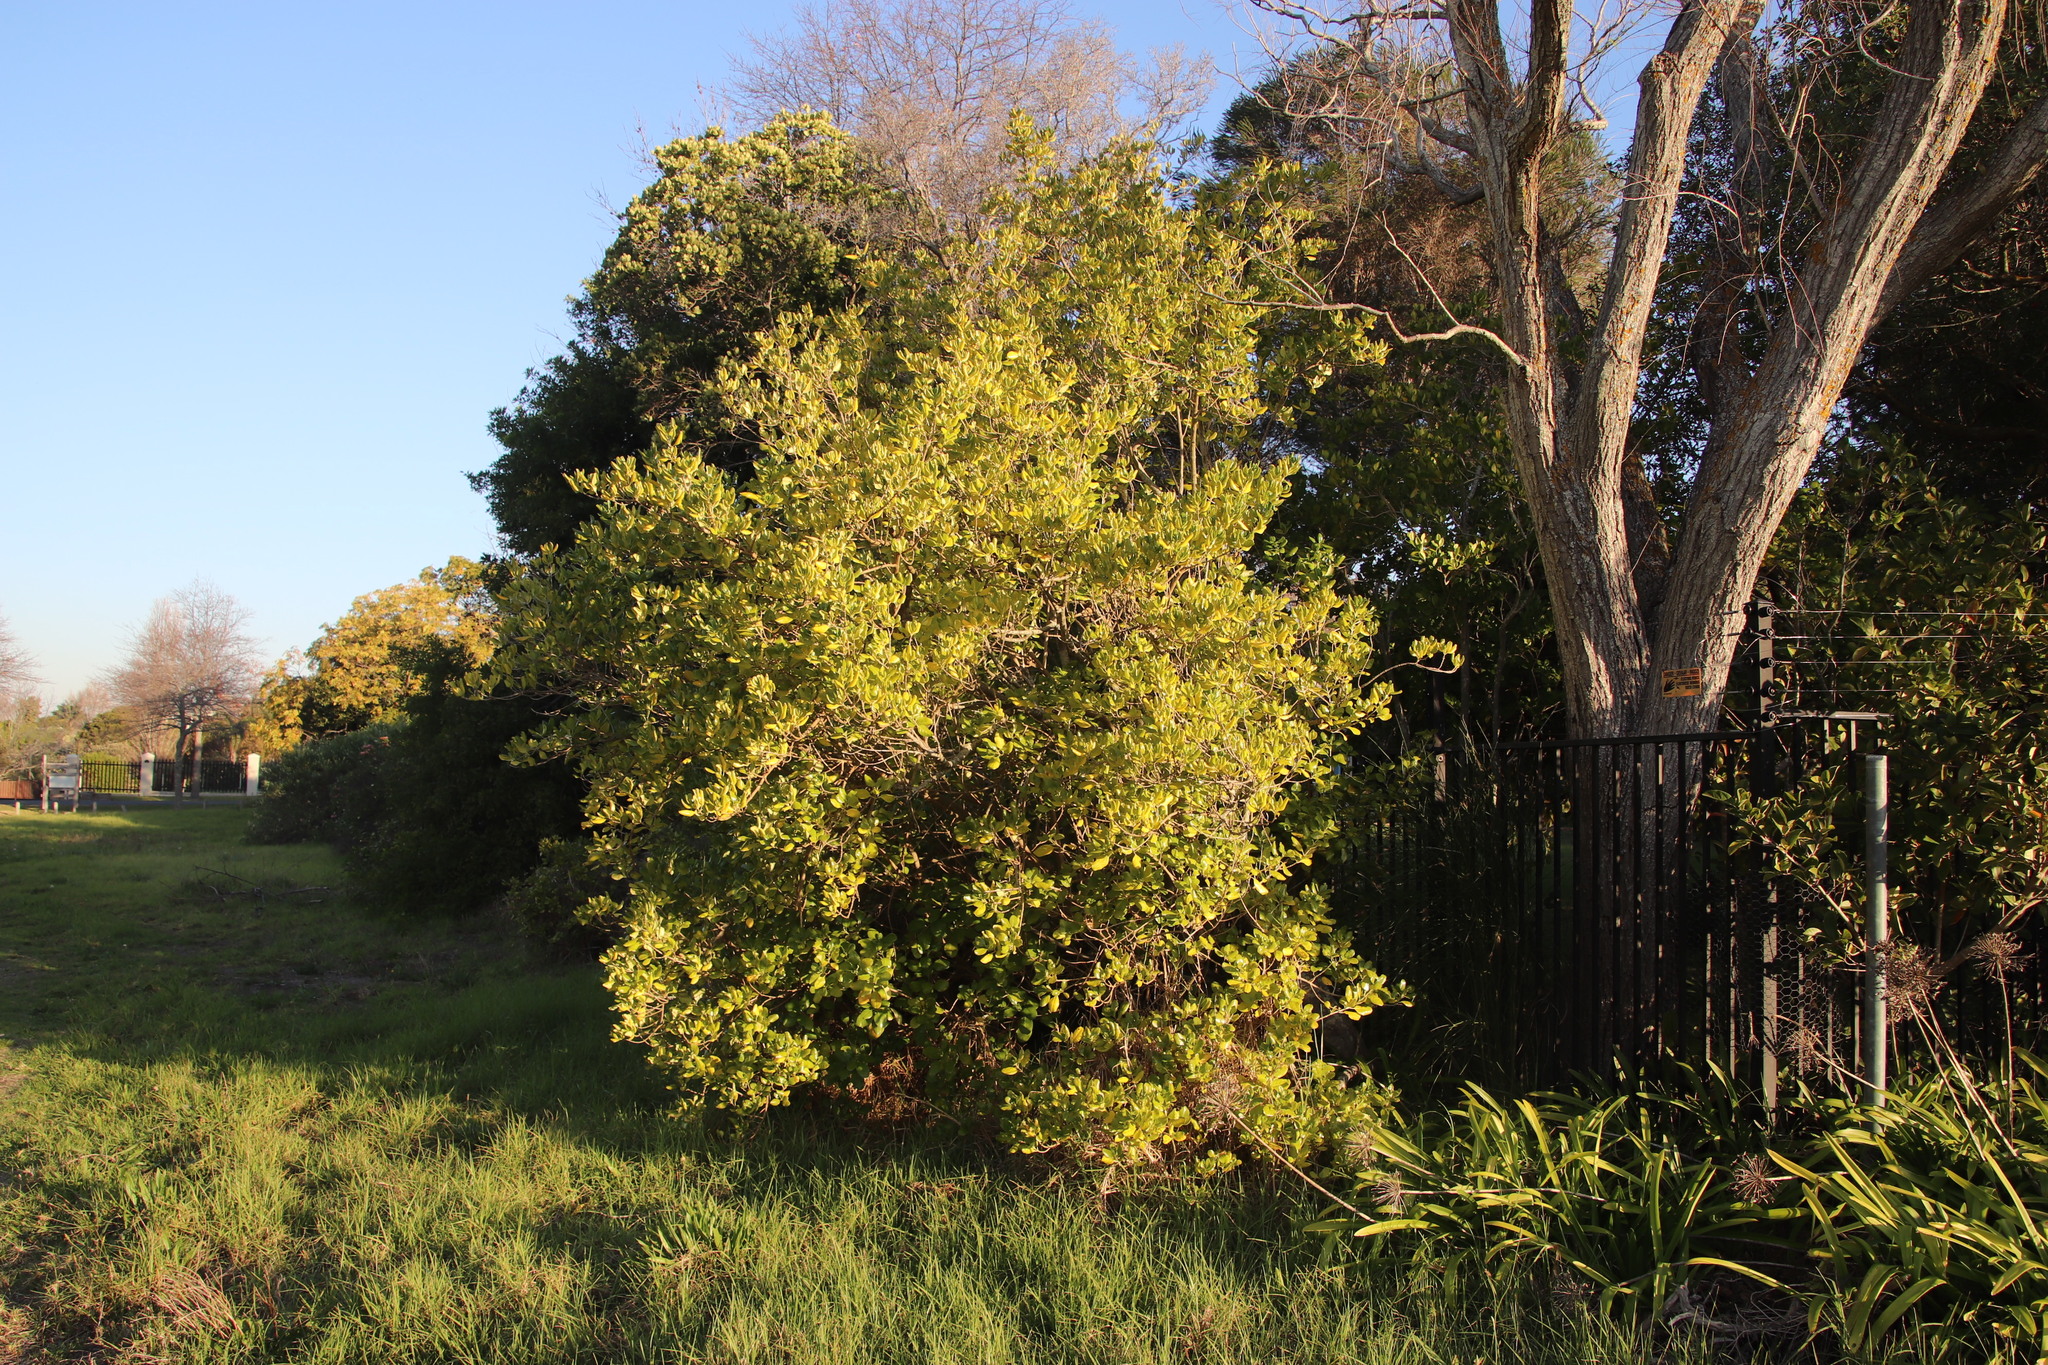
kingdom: Plantae
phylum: Tracheophyta
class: Magnoliopsida
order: Gentianales
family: Rubiaceae
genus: Coprosma
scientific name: Coprosma repens
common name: Tree bedstraw
